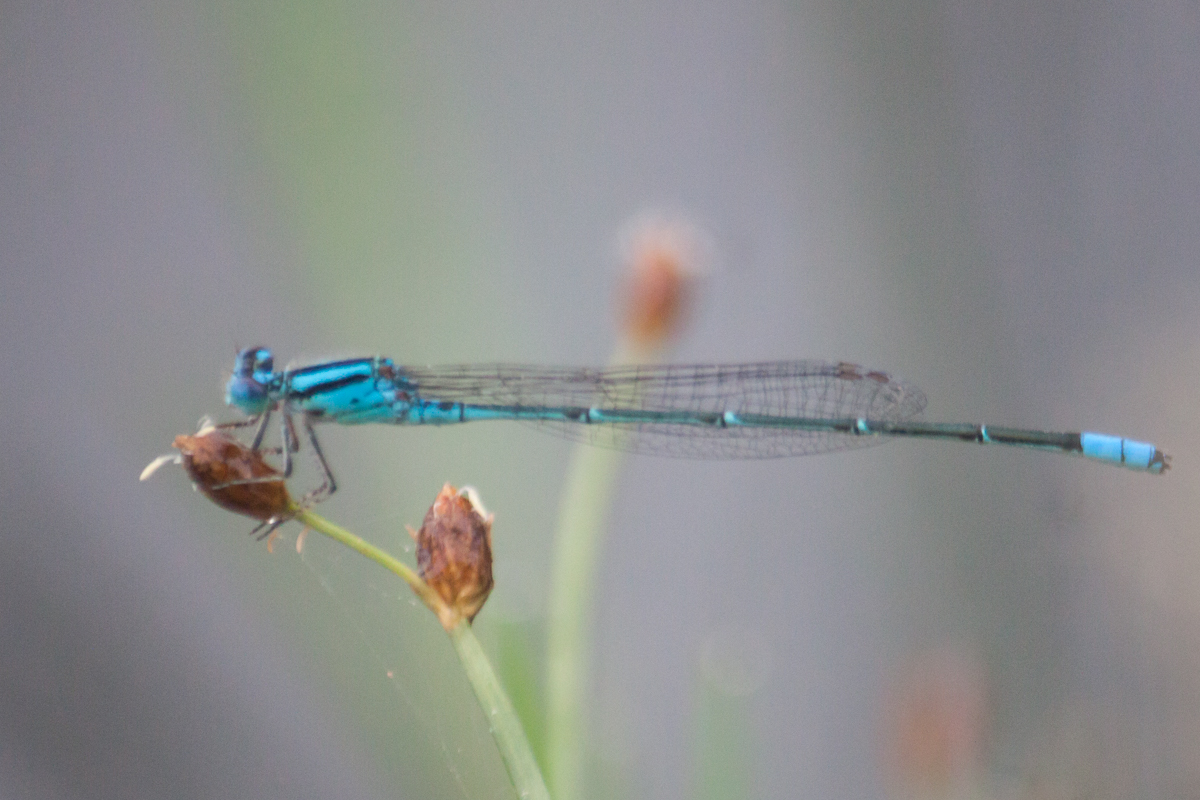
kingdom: Animalia
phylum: Arthropoda
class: Insecta
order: Odonata
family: Coenagrionidae
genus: Pseudagrion
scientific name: Pseudagrion australasiae
